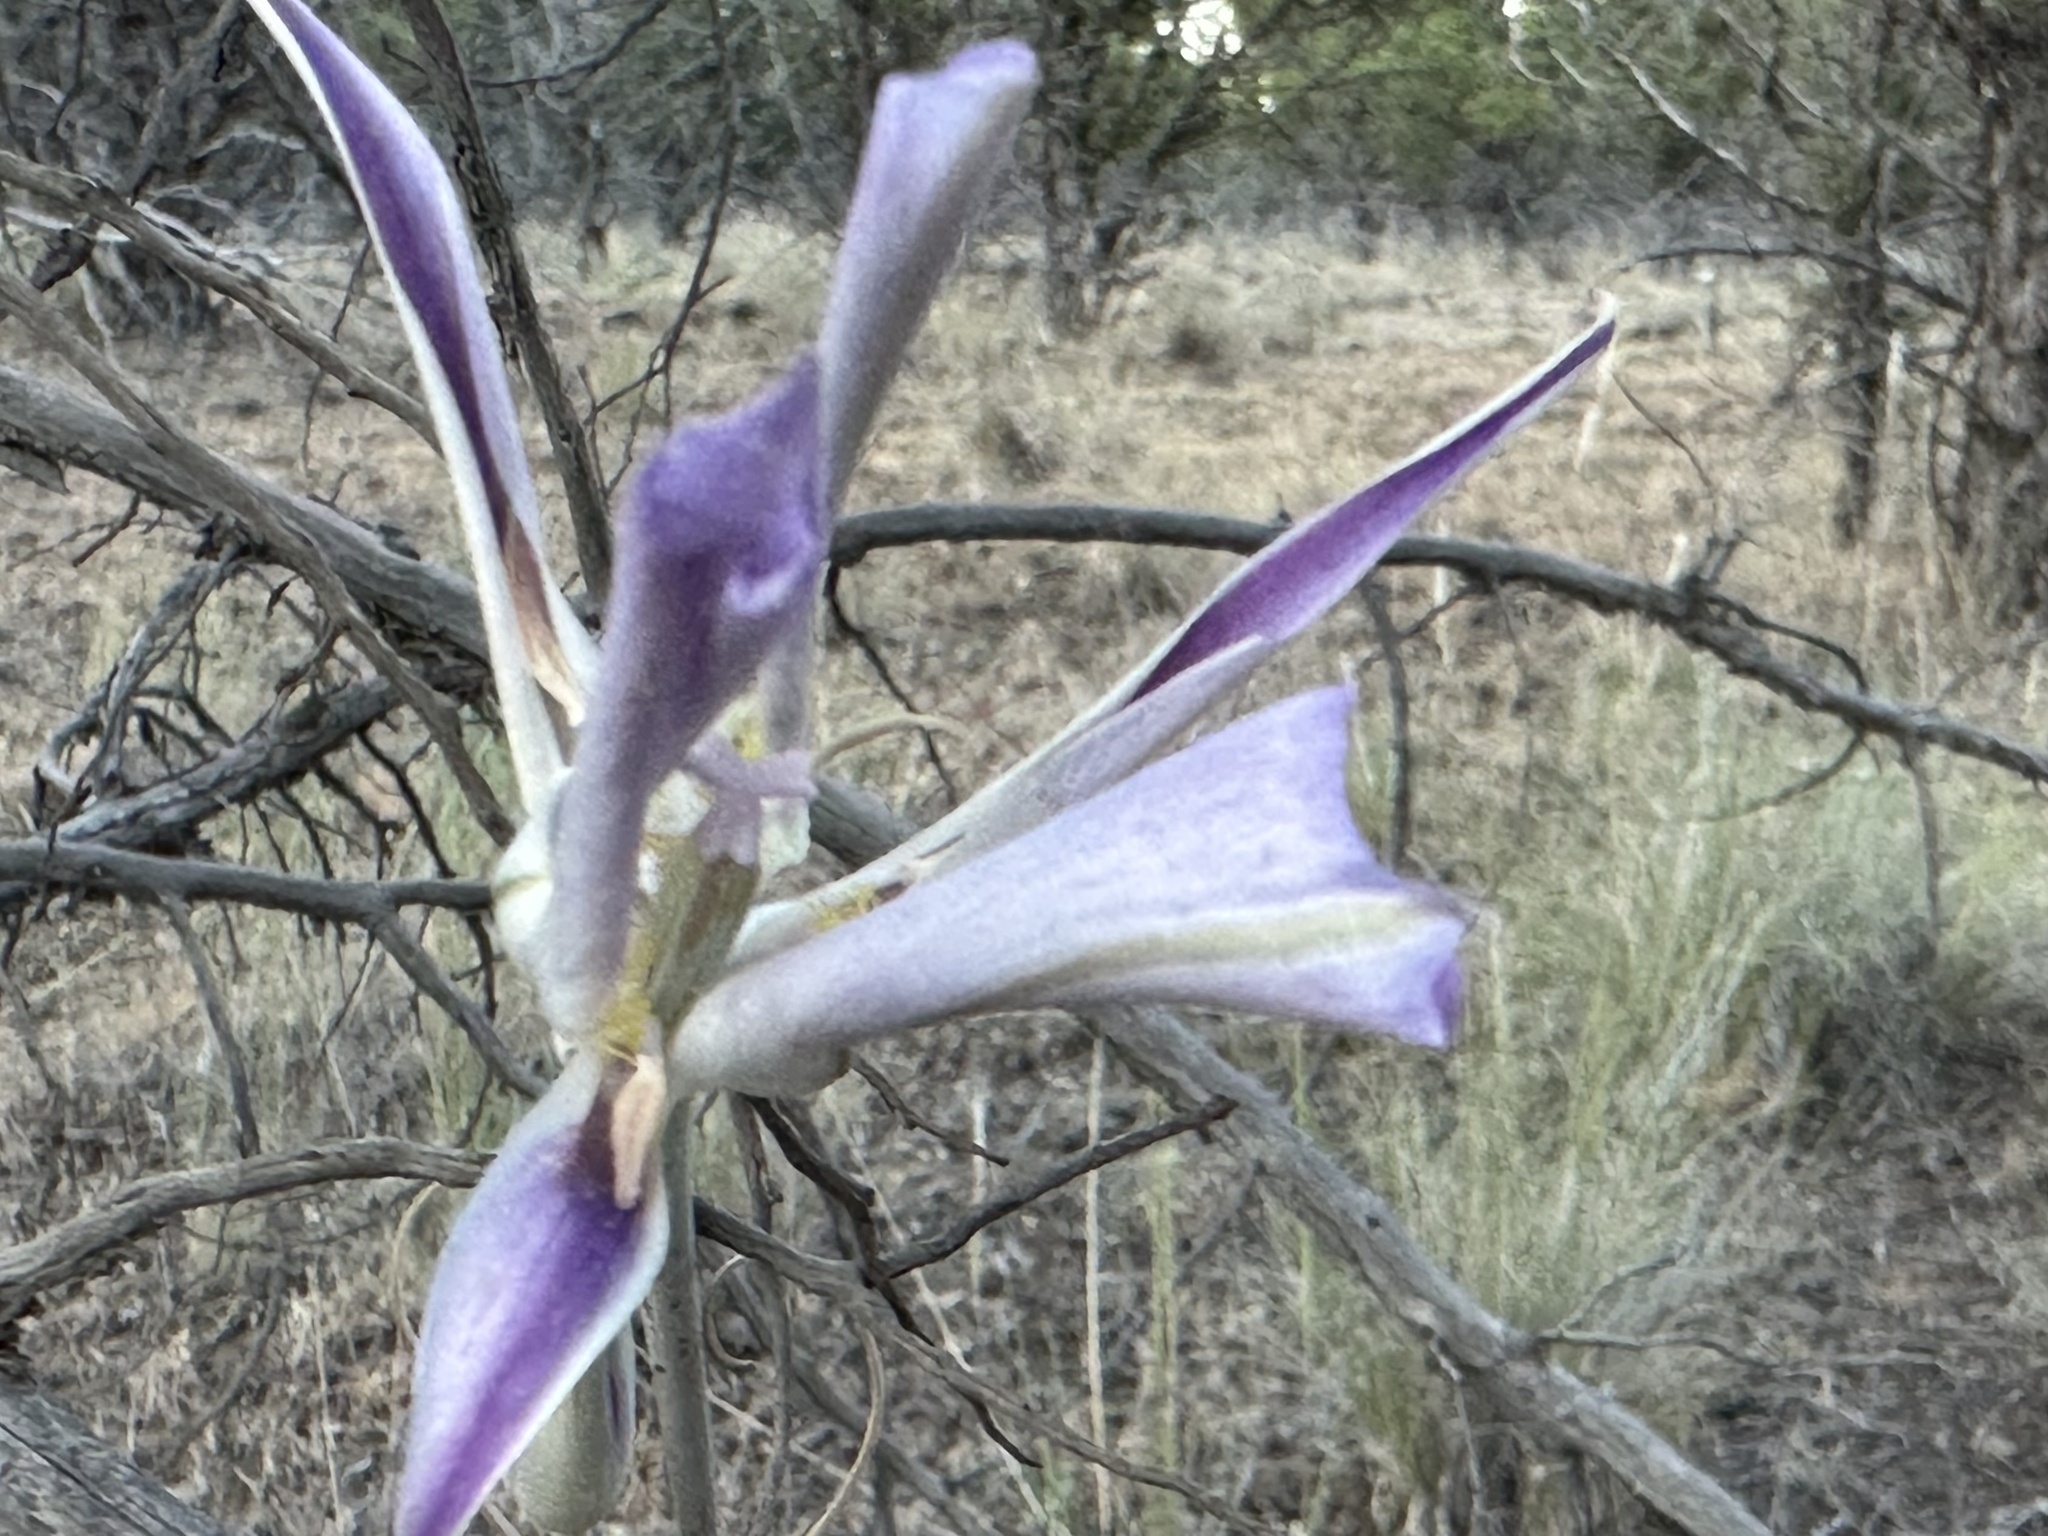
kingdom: Plantae
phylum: Tracheophyta
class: Liliopsida
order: Liliales
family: Liliaceae
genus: Calochortus
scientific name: Calochortus macrocarpus
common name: Green-band mariposa lily
